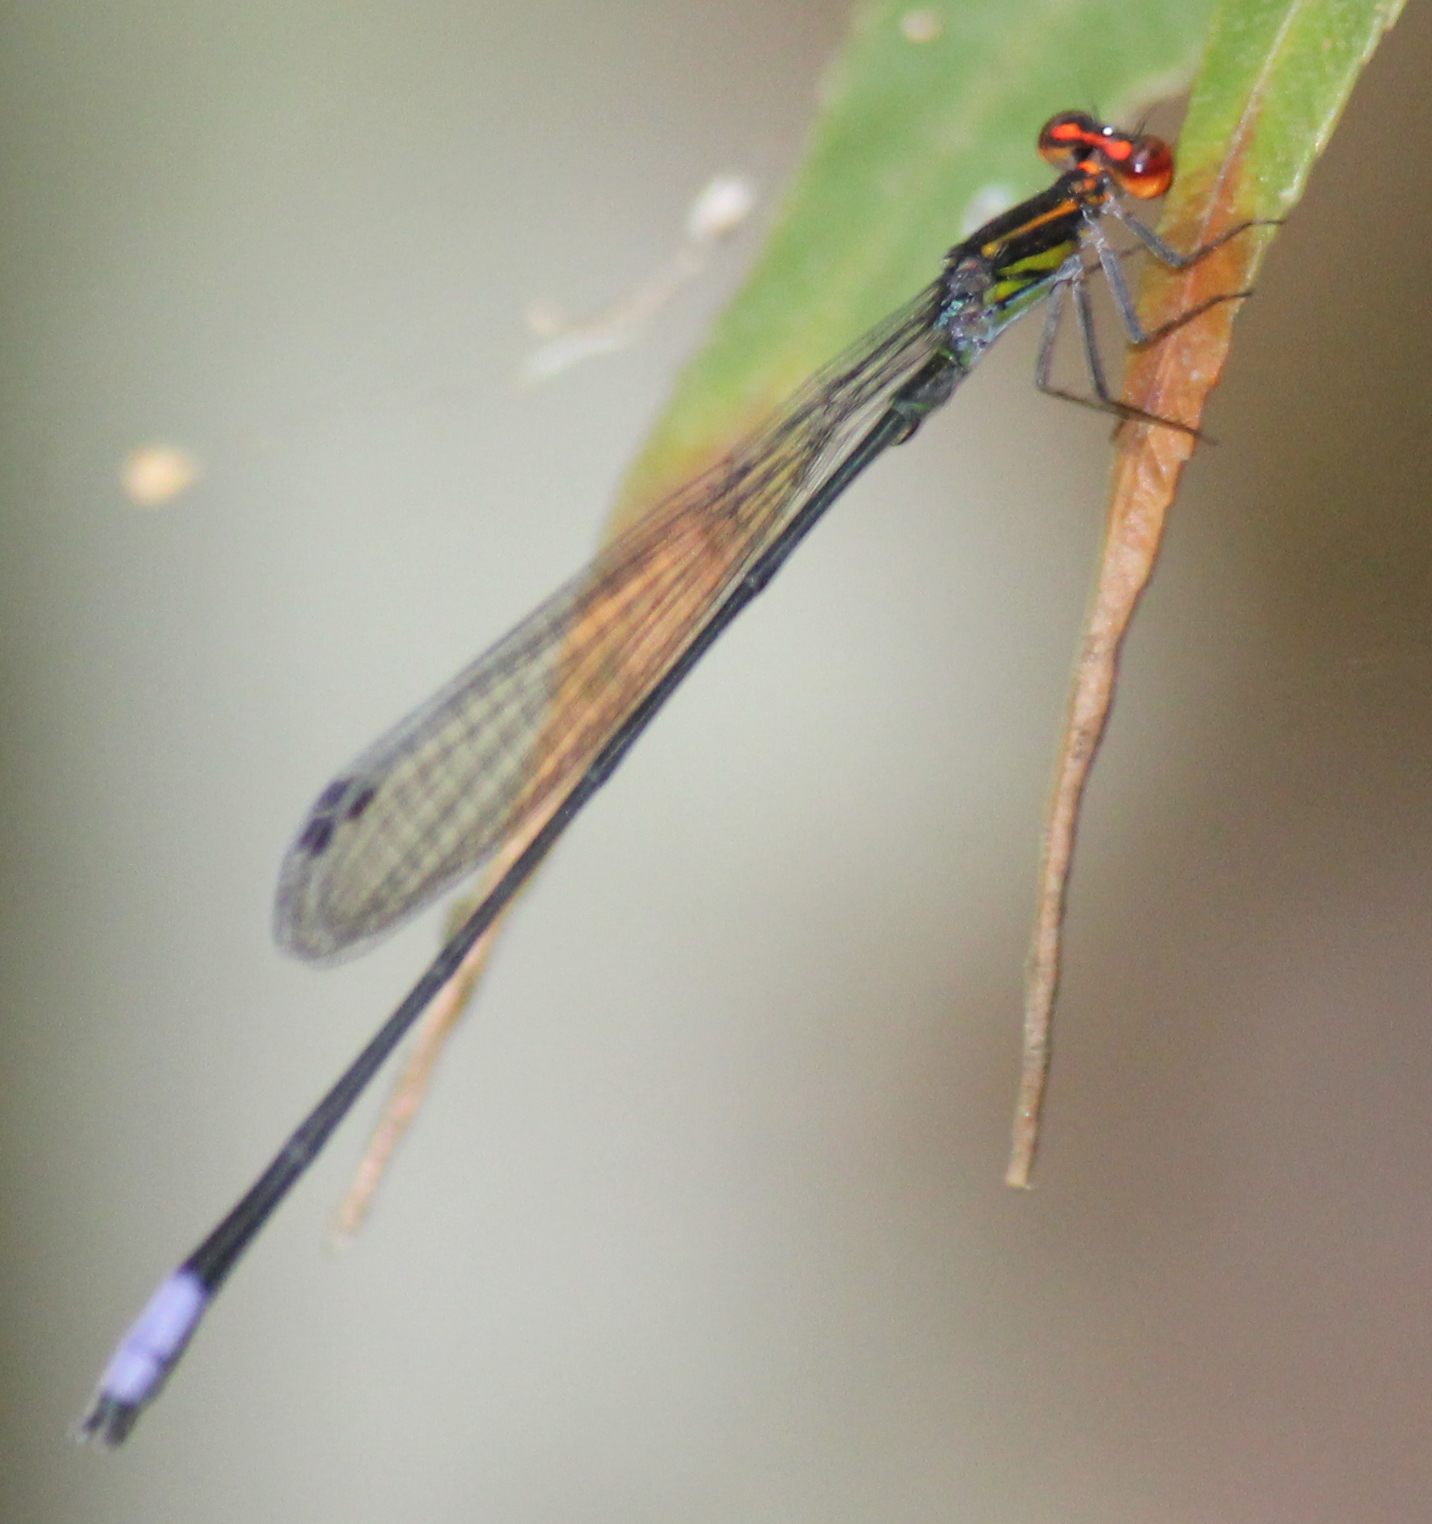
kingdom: Animalia
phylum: Arthropoda
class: Insecta
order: Odonata
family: Coenagrionidae
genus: Pseudagrion
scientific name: Pseudagrion hageni
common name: Painted sprite
